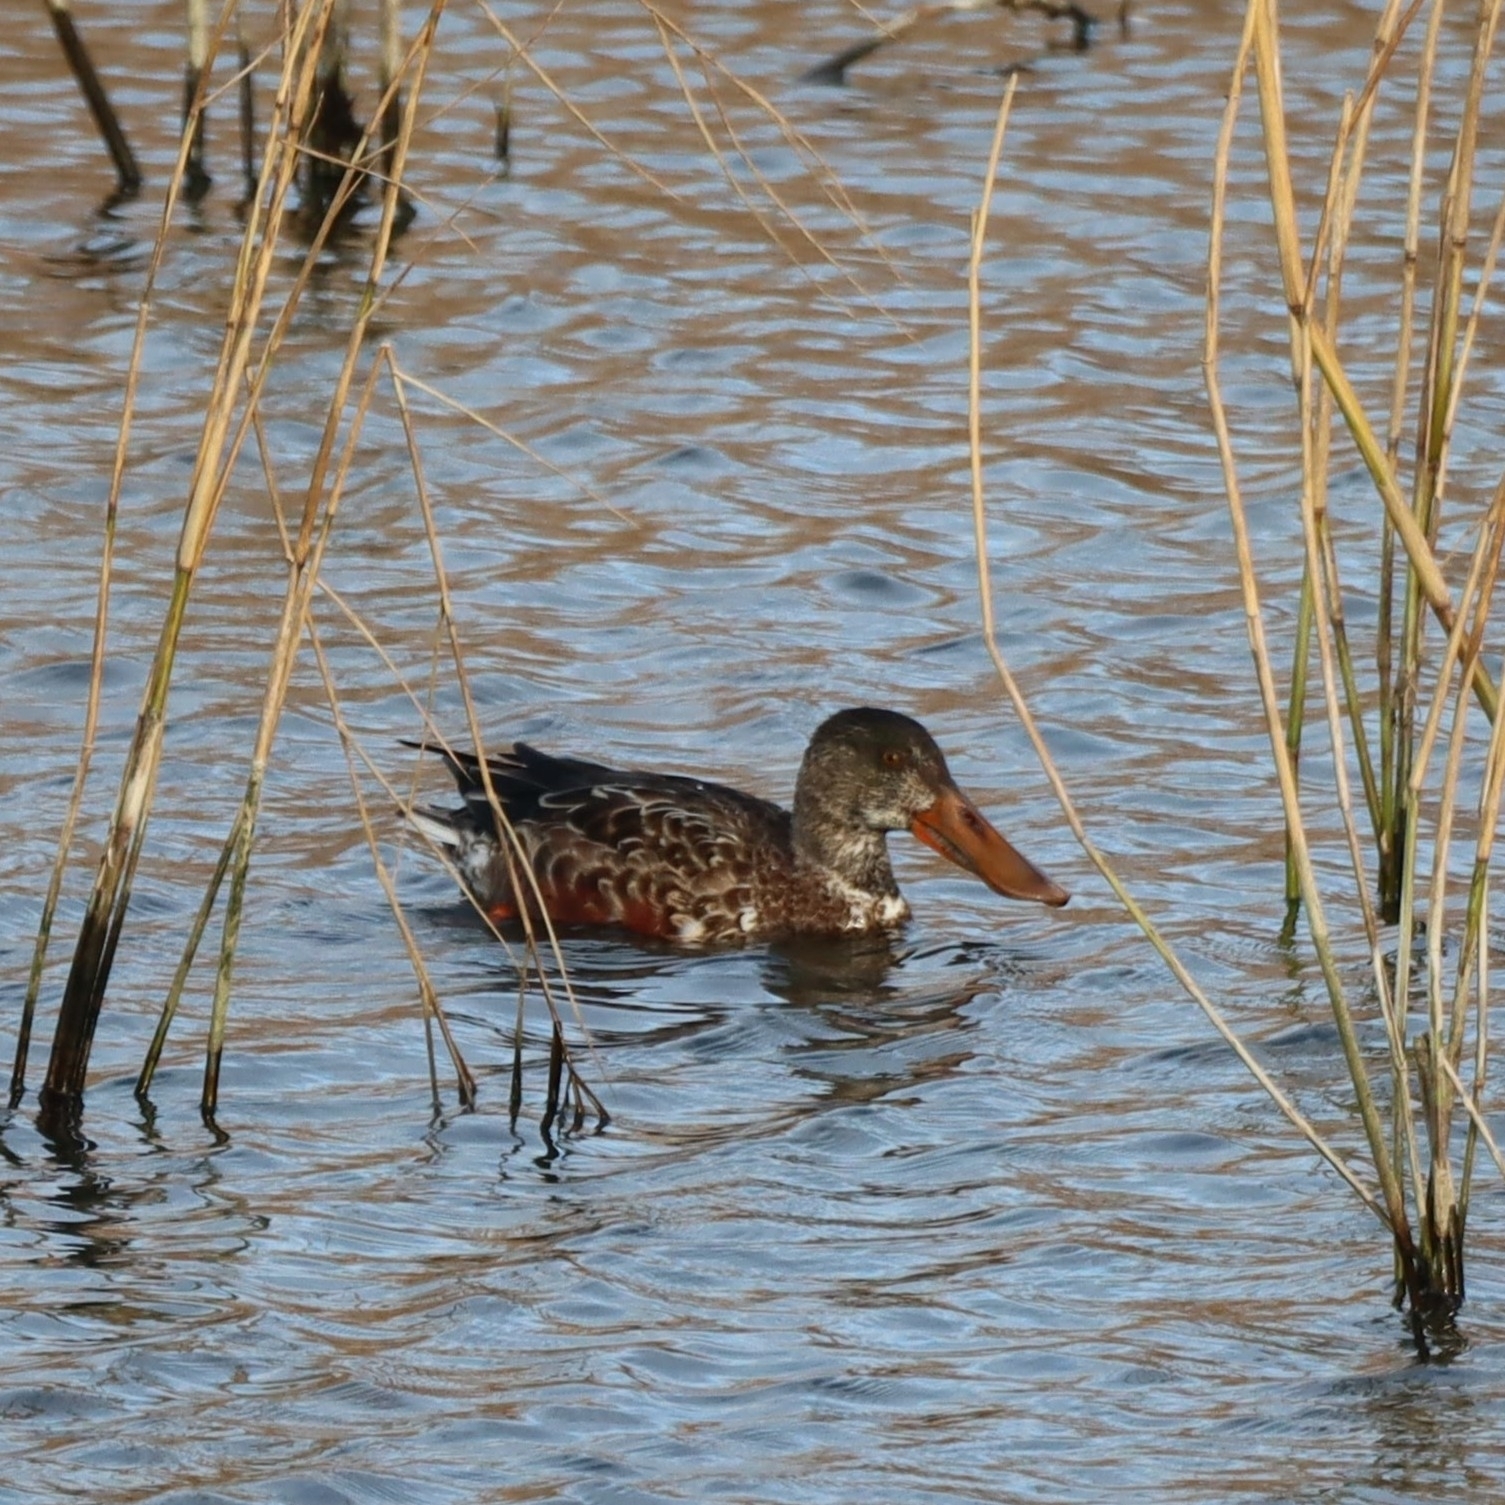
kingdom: Animalia
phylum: Chordata
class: Aves
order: Anseriformes
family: Anatidae
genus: Spatula
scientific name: Spatula clypeata
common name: Northern shoveler
